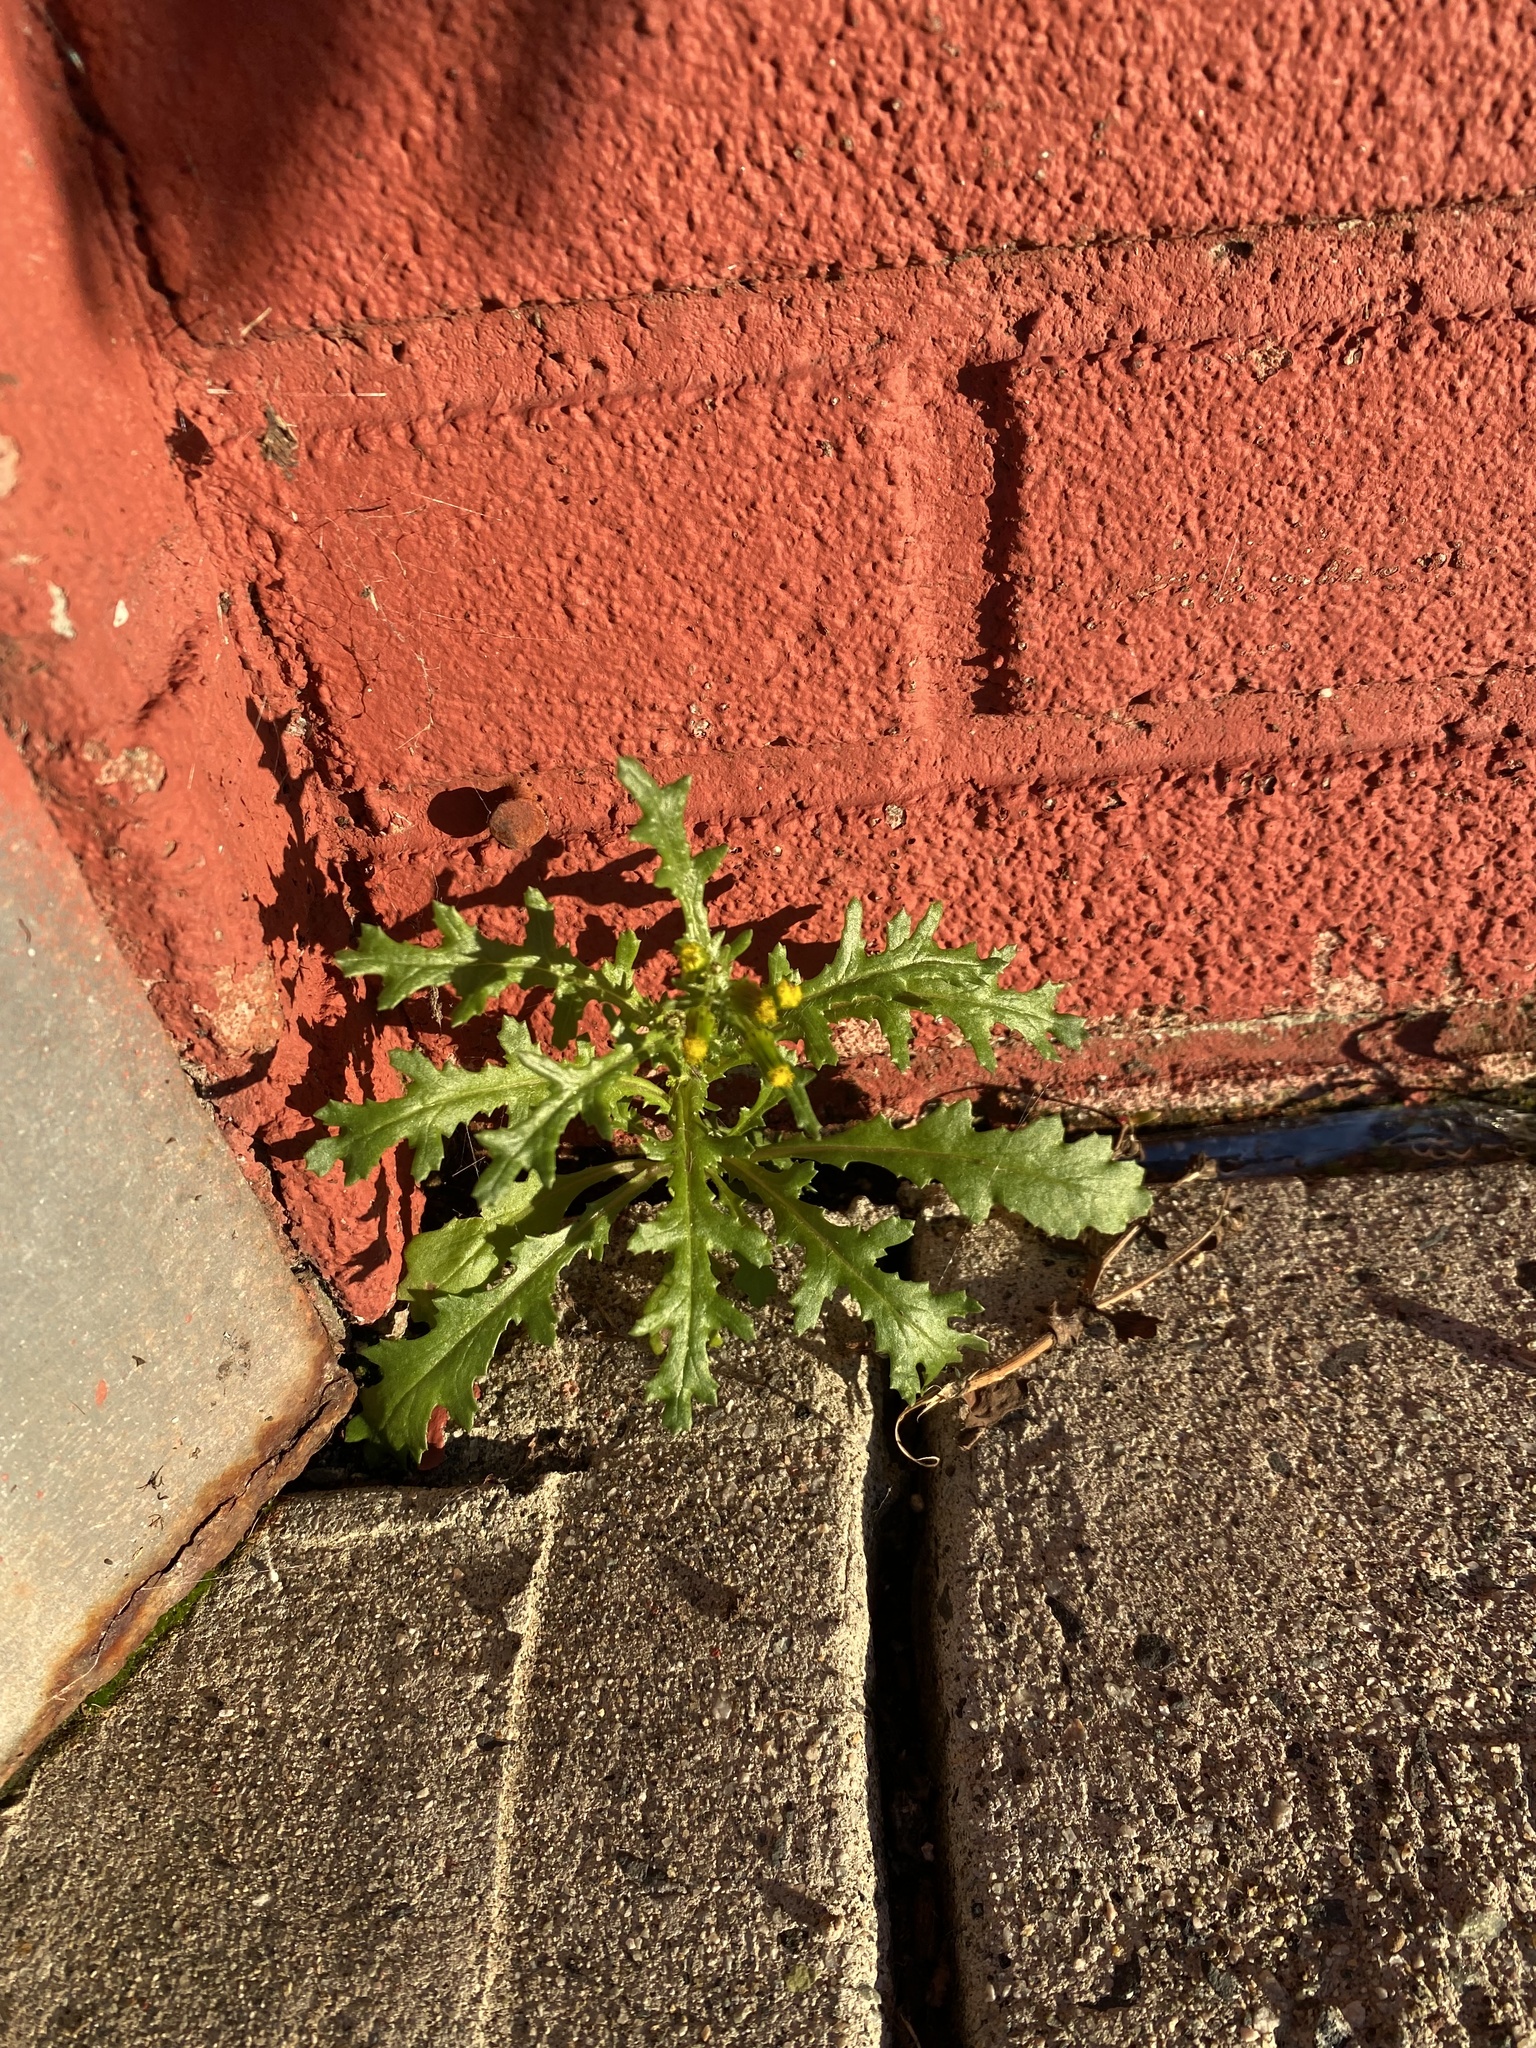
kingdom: Plantae
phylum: Tracheophyta
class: Magnoliopsida
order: Asterales
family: Asteraceae
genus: Senecio
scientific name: Senecio vulgaris
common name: Old-man-in-the-spring
